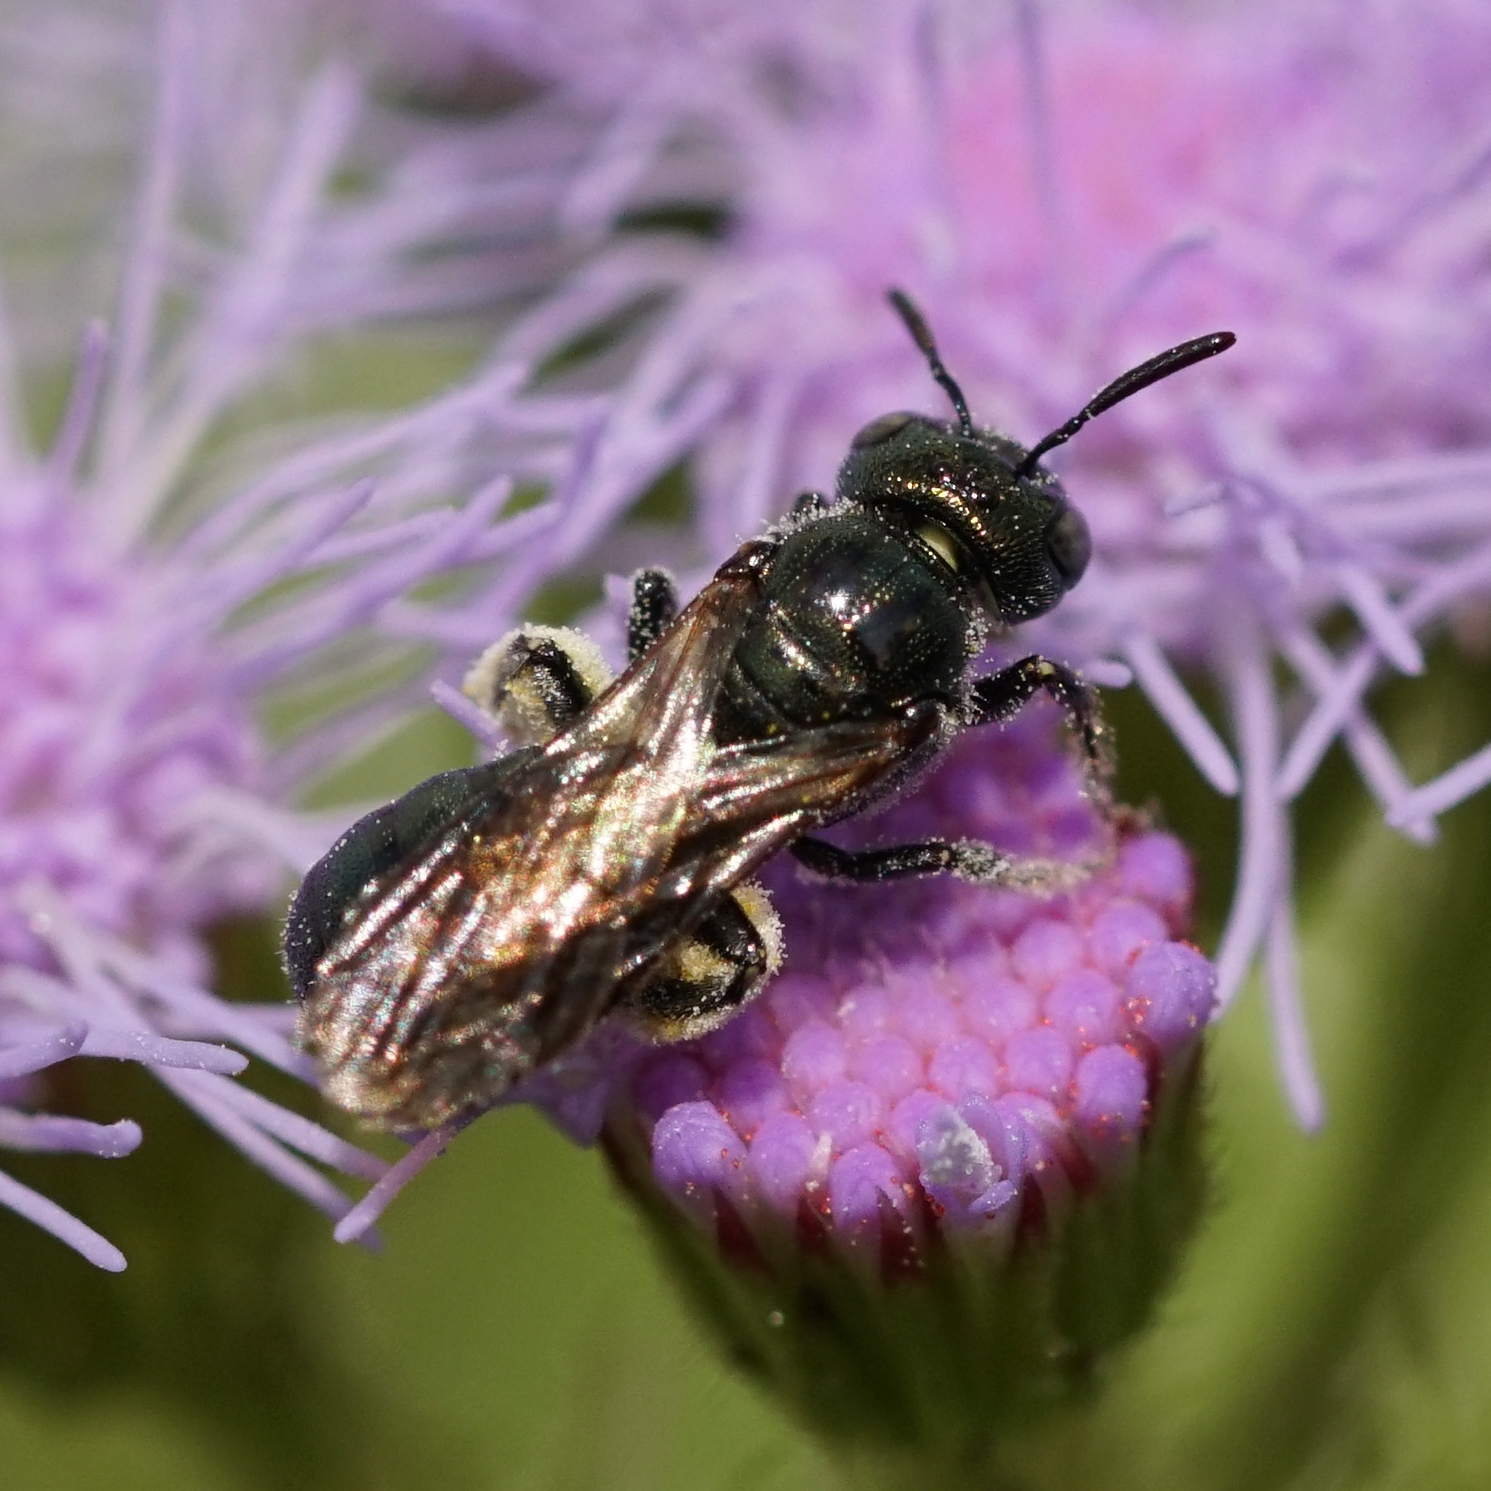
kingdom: Animalia
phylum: Arthropoda
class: Insecta
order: Hymenoptera
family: Apidae
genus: Zadontomerus
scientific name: Zadontomerus
